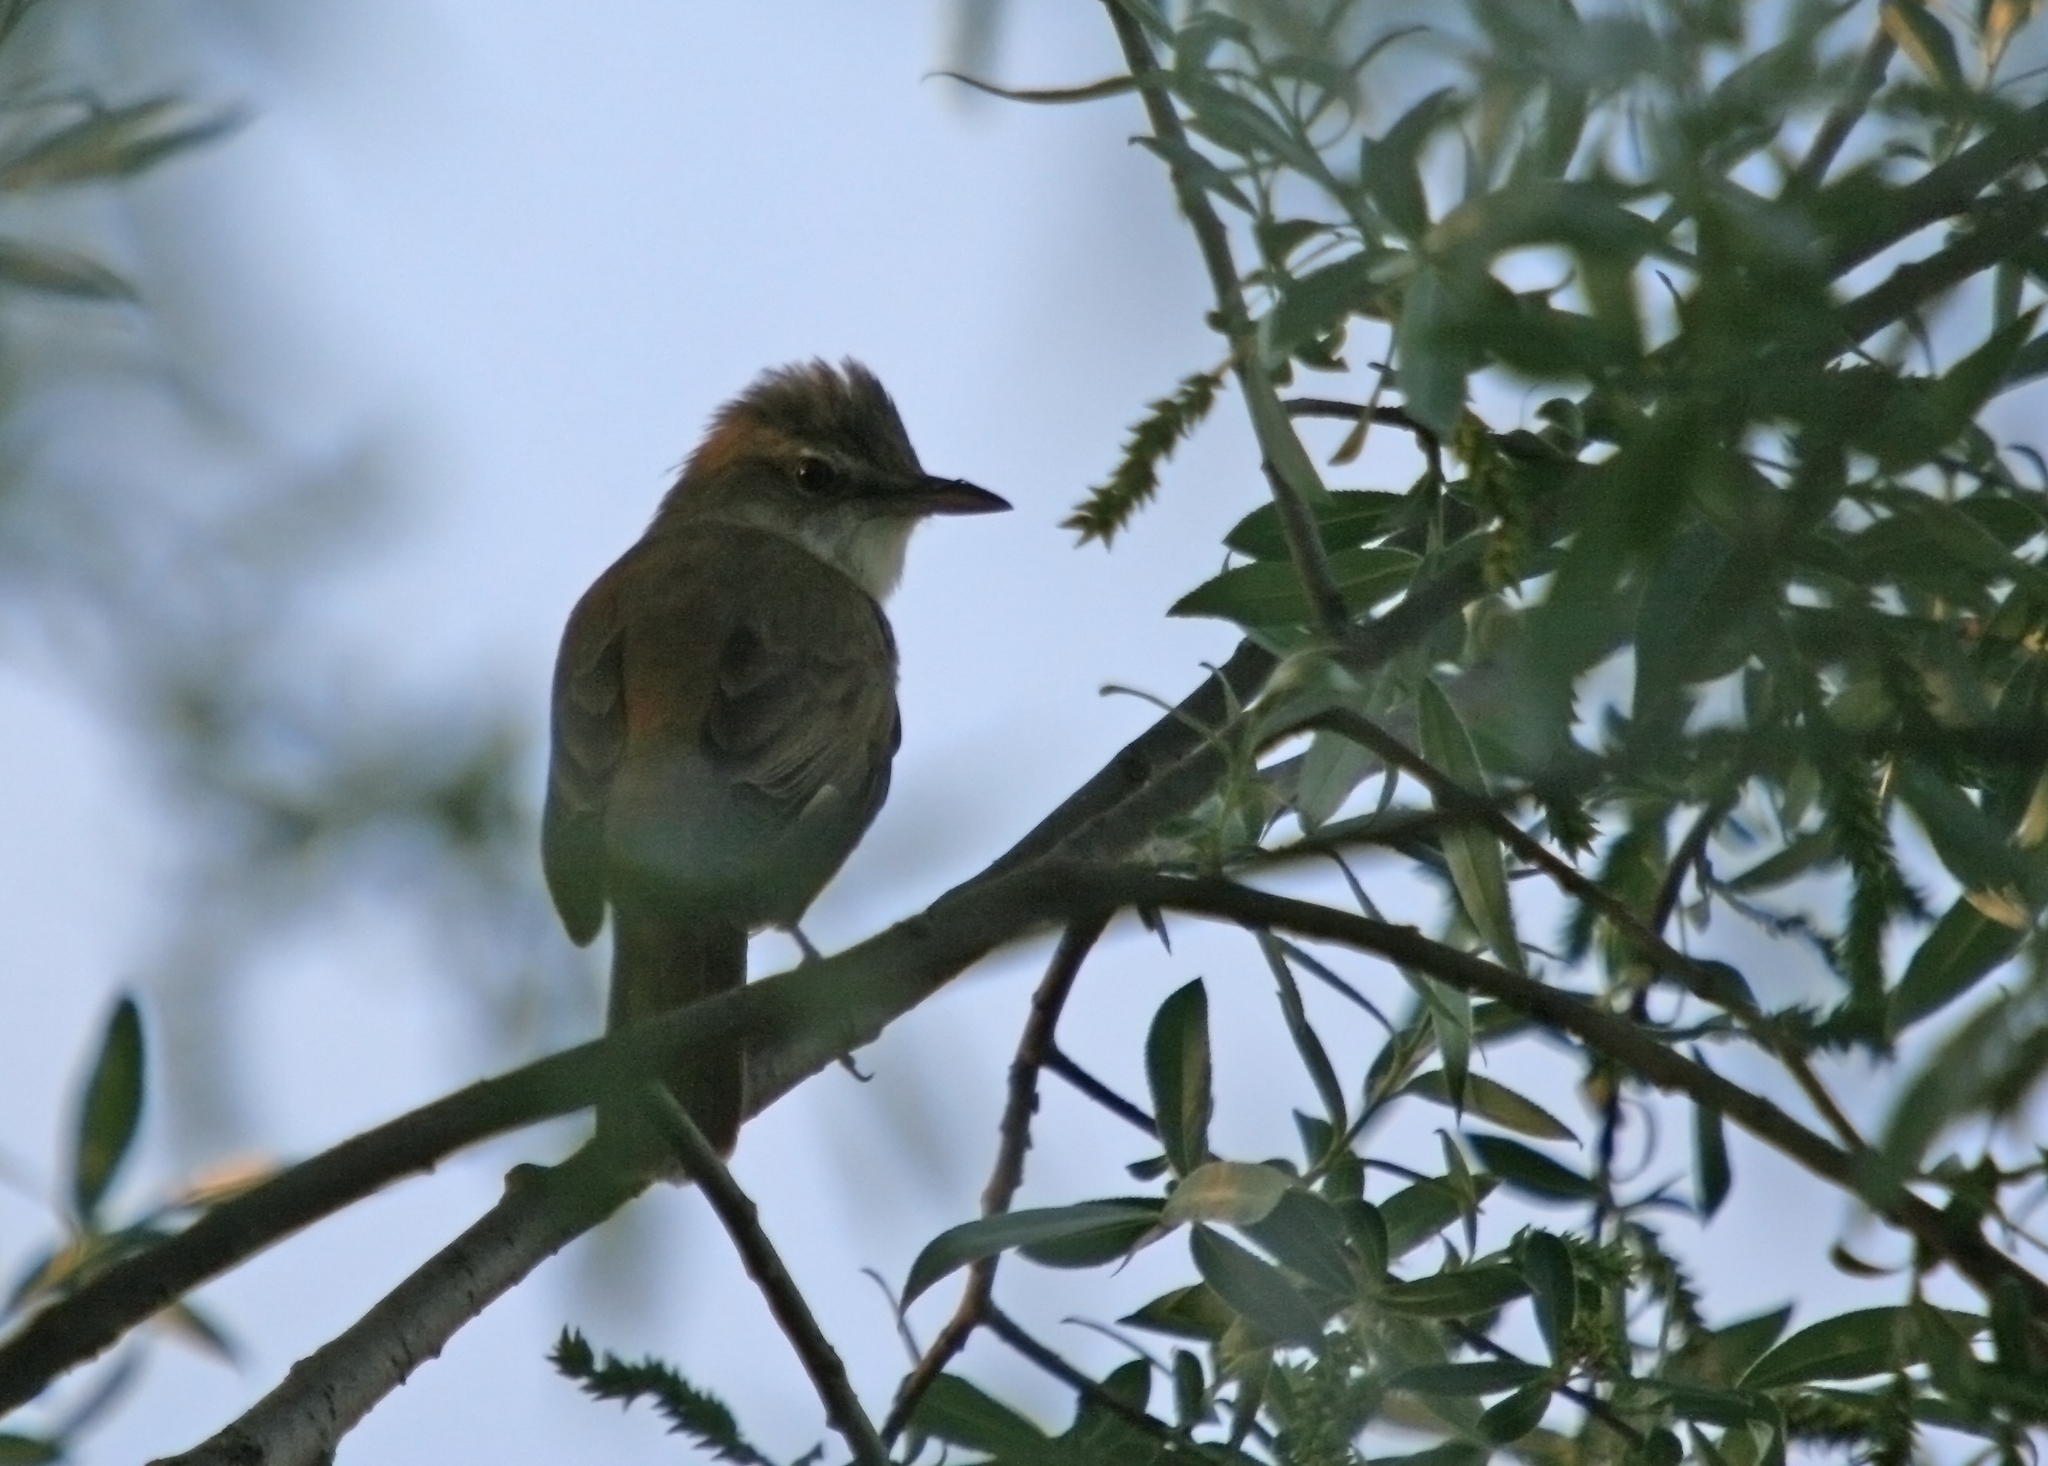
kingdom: Animalia
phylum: Chordata
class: Aves
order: Passeriformes
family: Acrocephalidae
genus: Acrocephalus
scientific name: Acrocephalus arundinaceus
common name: Great reed warbler
